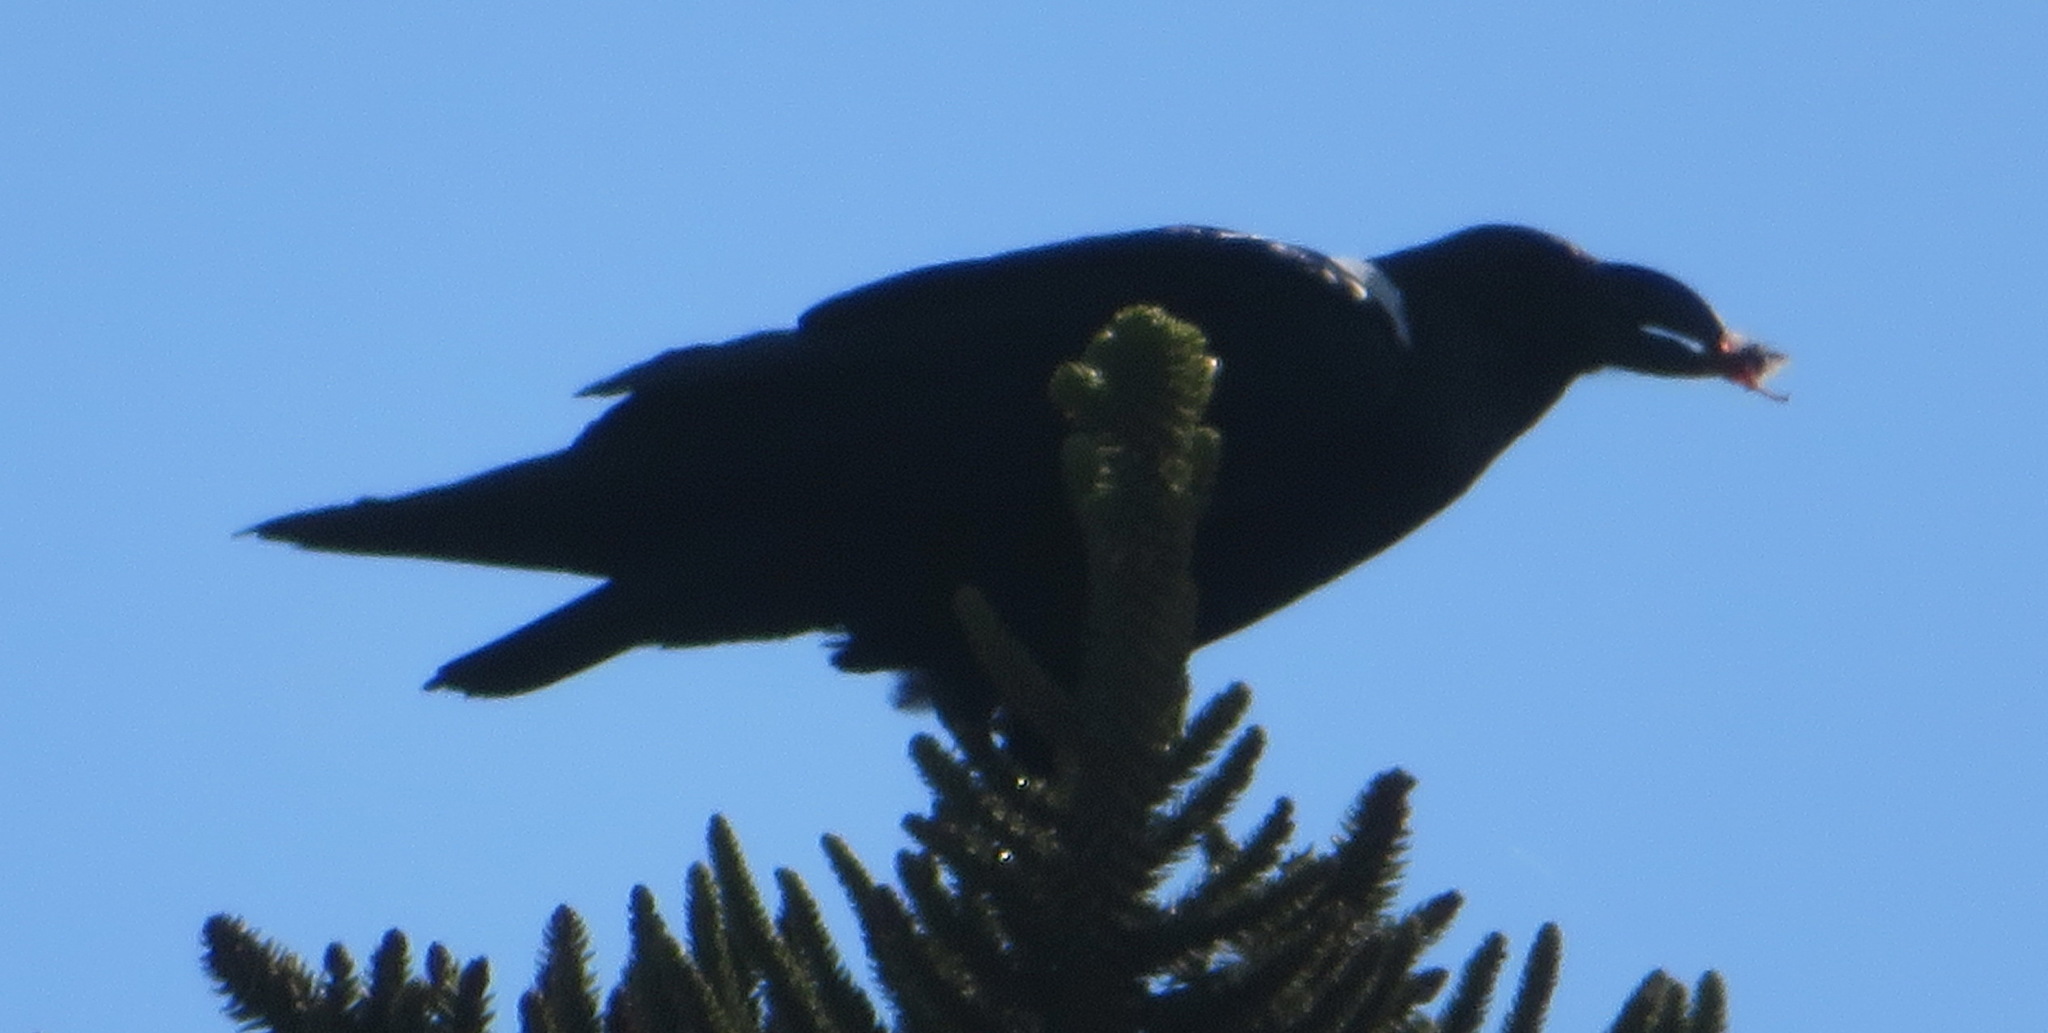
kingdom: Animalia
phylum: Chordata
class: Aves
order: Passeriformes
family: Corvidae
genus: Corvus
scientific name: Corvus albicollis
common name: White-necked raven
